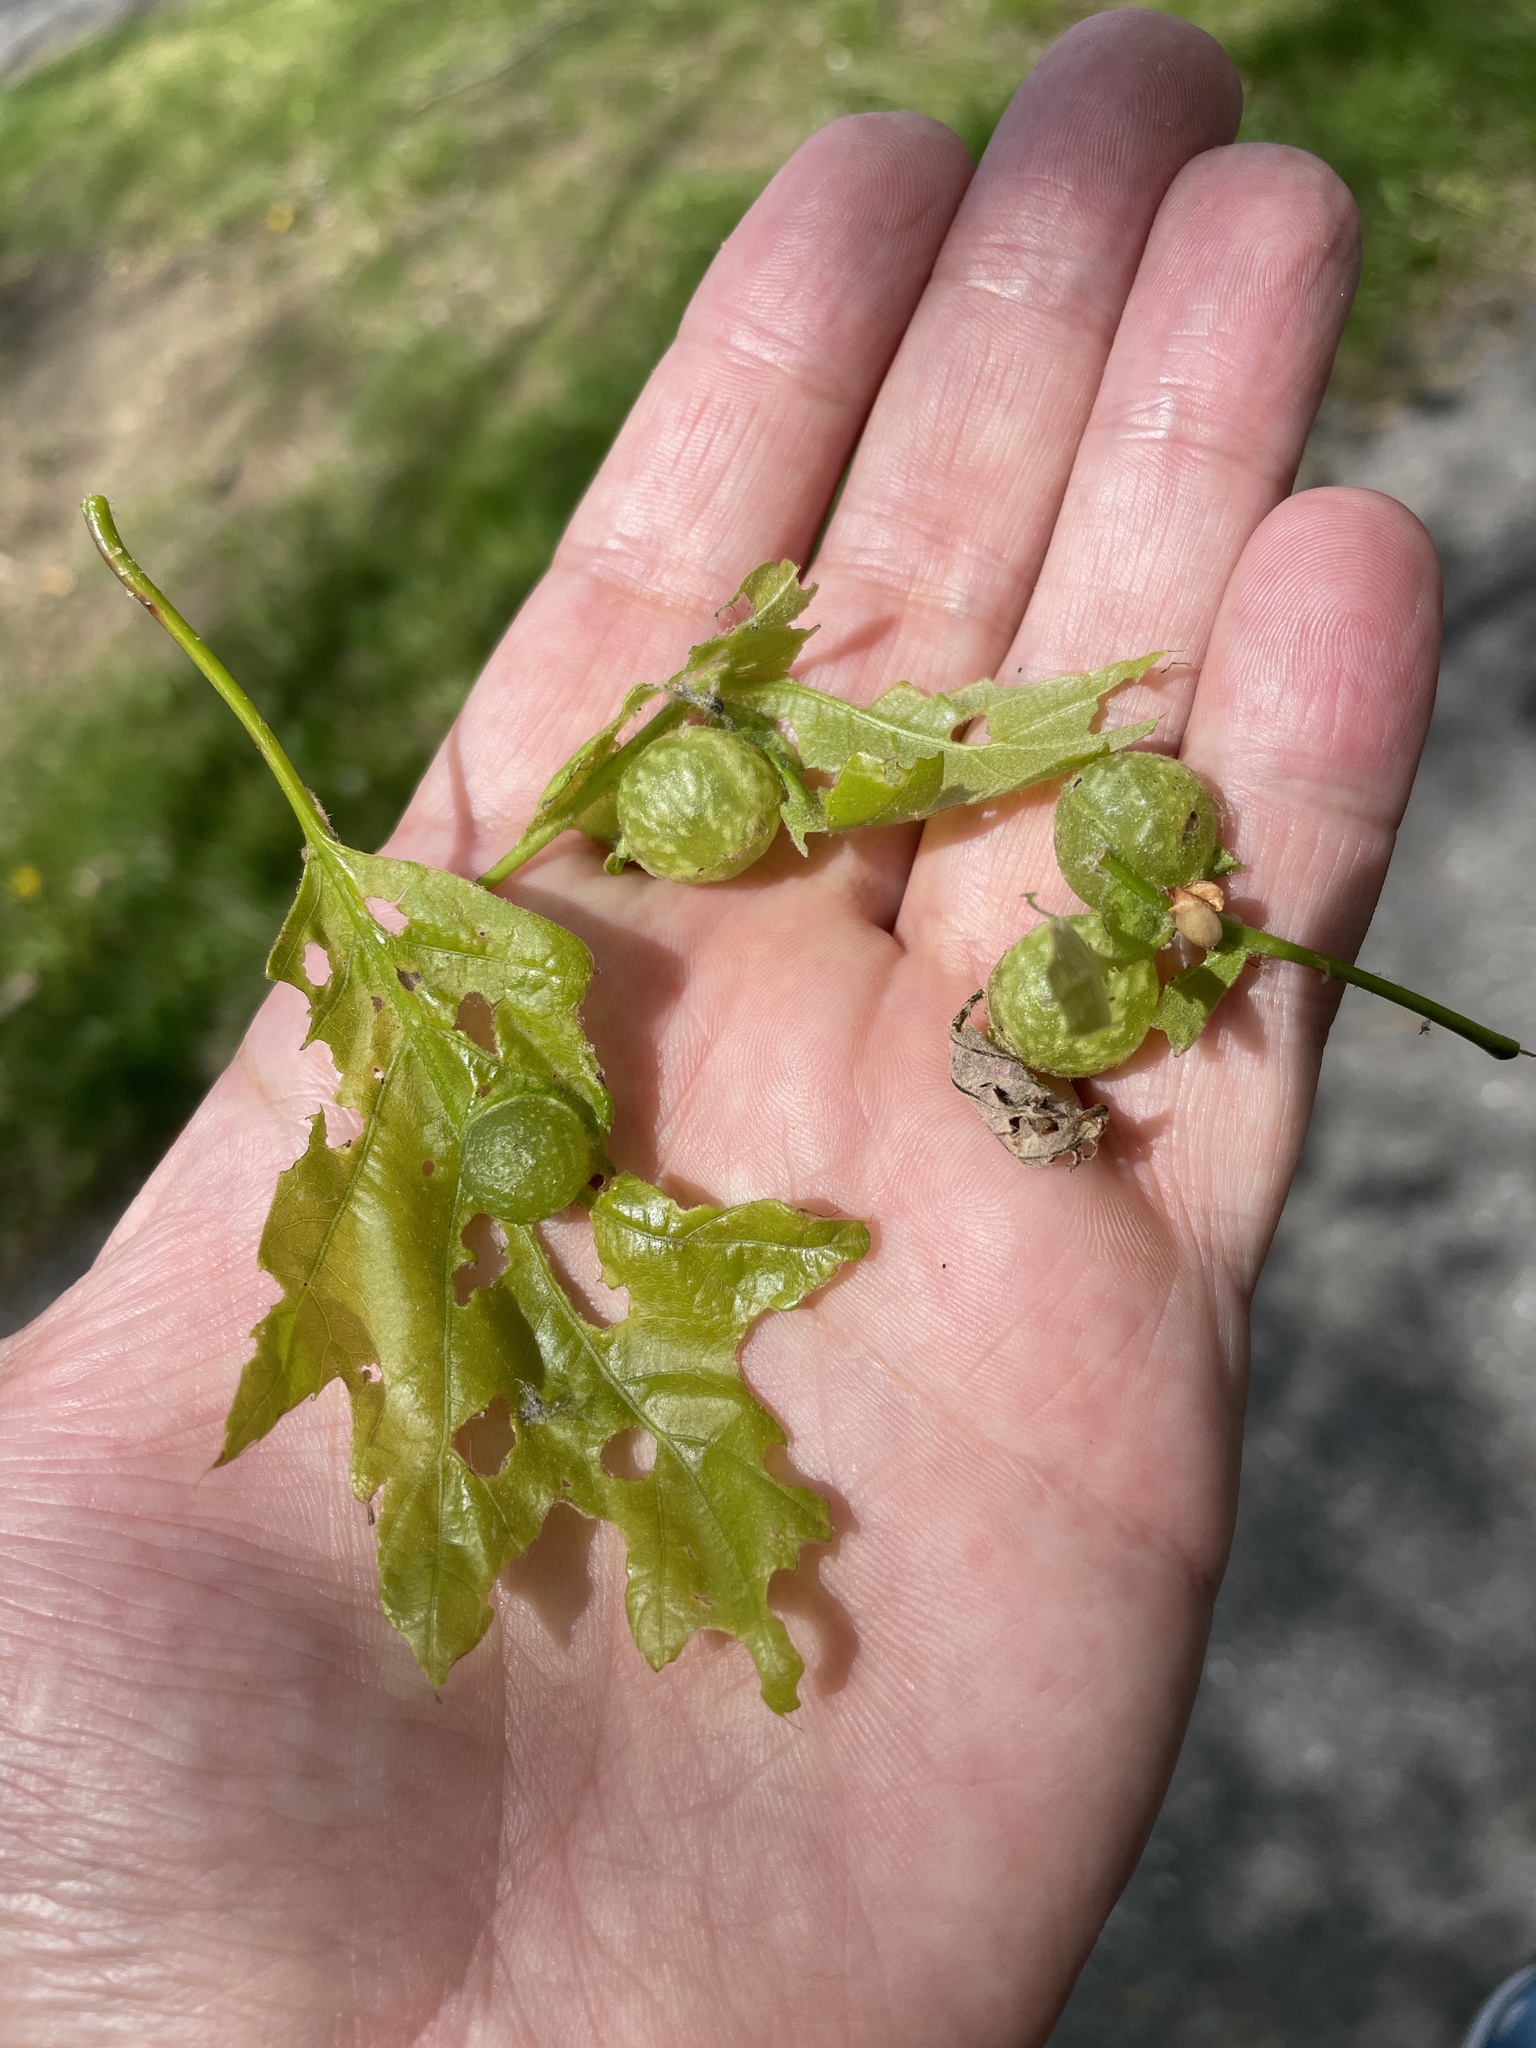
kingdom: Animalia
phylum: Arthropoda
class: Insecta
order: Hymenoptera
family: Cynipidae
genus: Dryocosmus
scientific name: Dryocosmus quercuspalustris
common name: Succulent oak gall wasp
